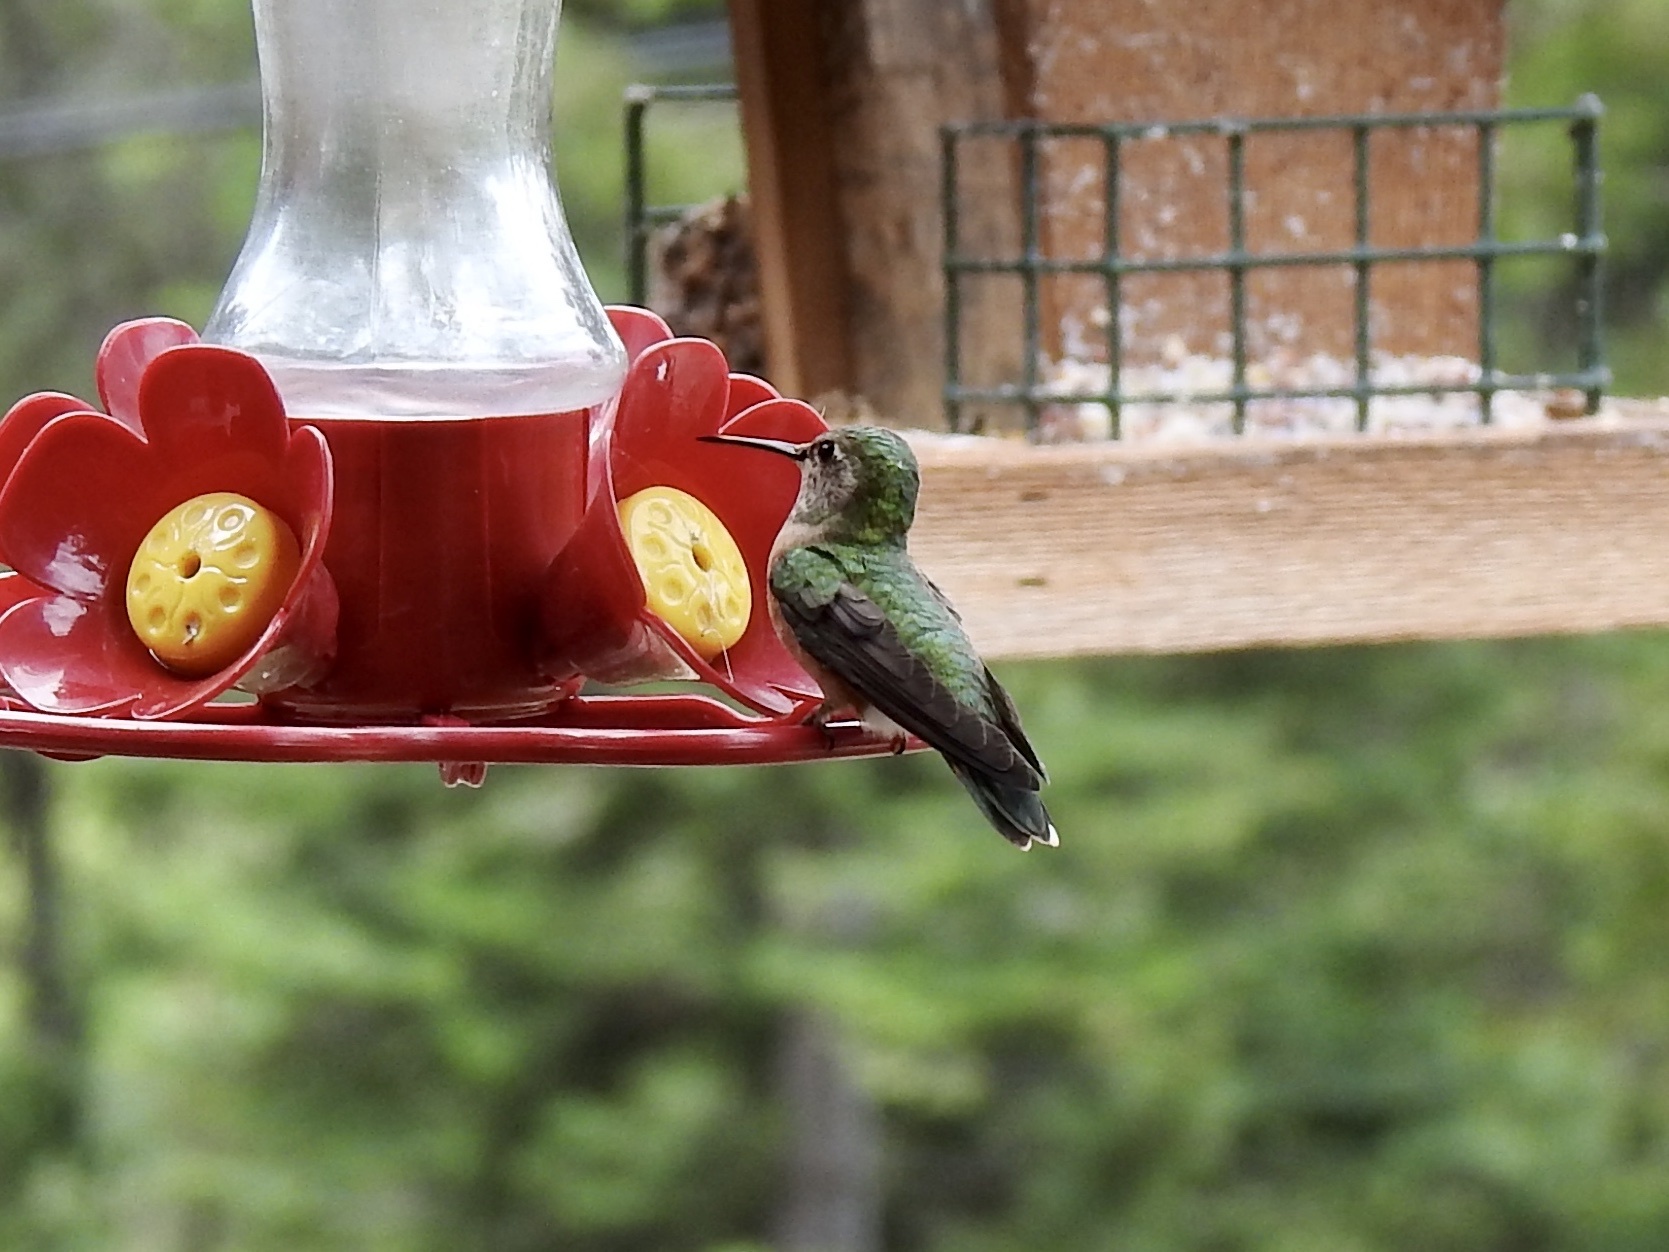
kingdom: Animalia
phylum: Chordata
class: Aves
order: Apodiformes
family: Trochilidae
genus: Selasphorus
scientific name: Selasphorus platycercus
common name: Broad-tailed hummingbird
